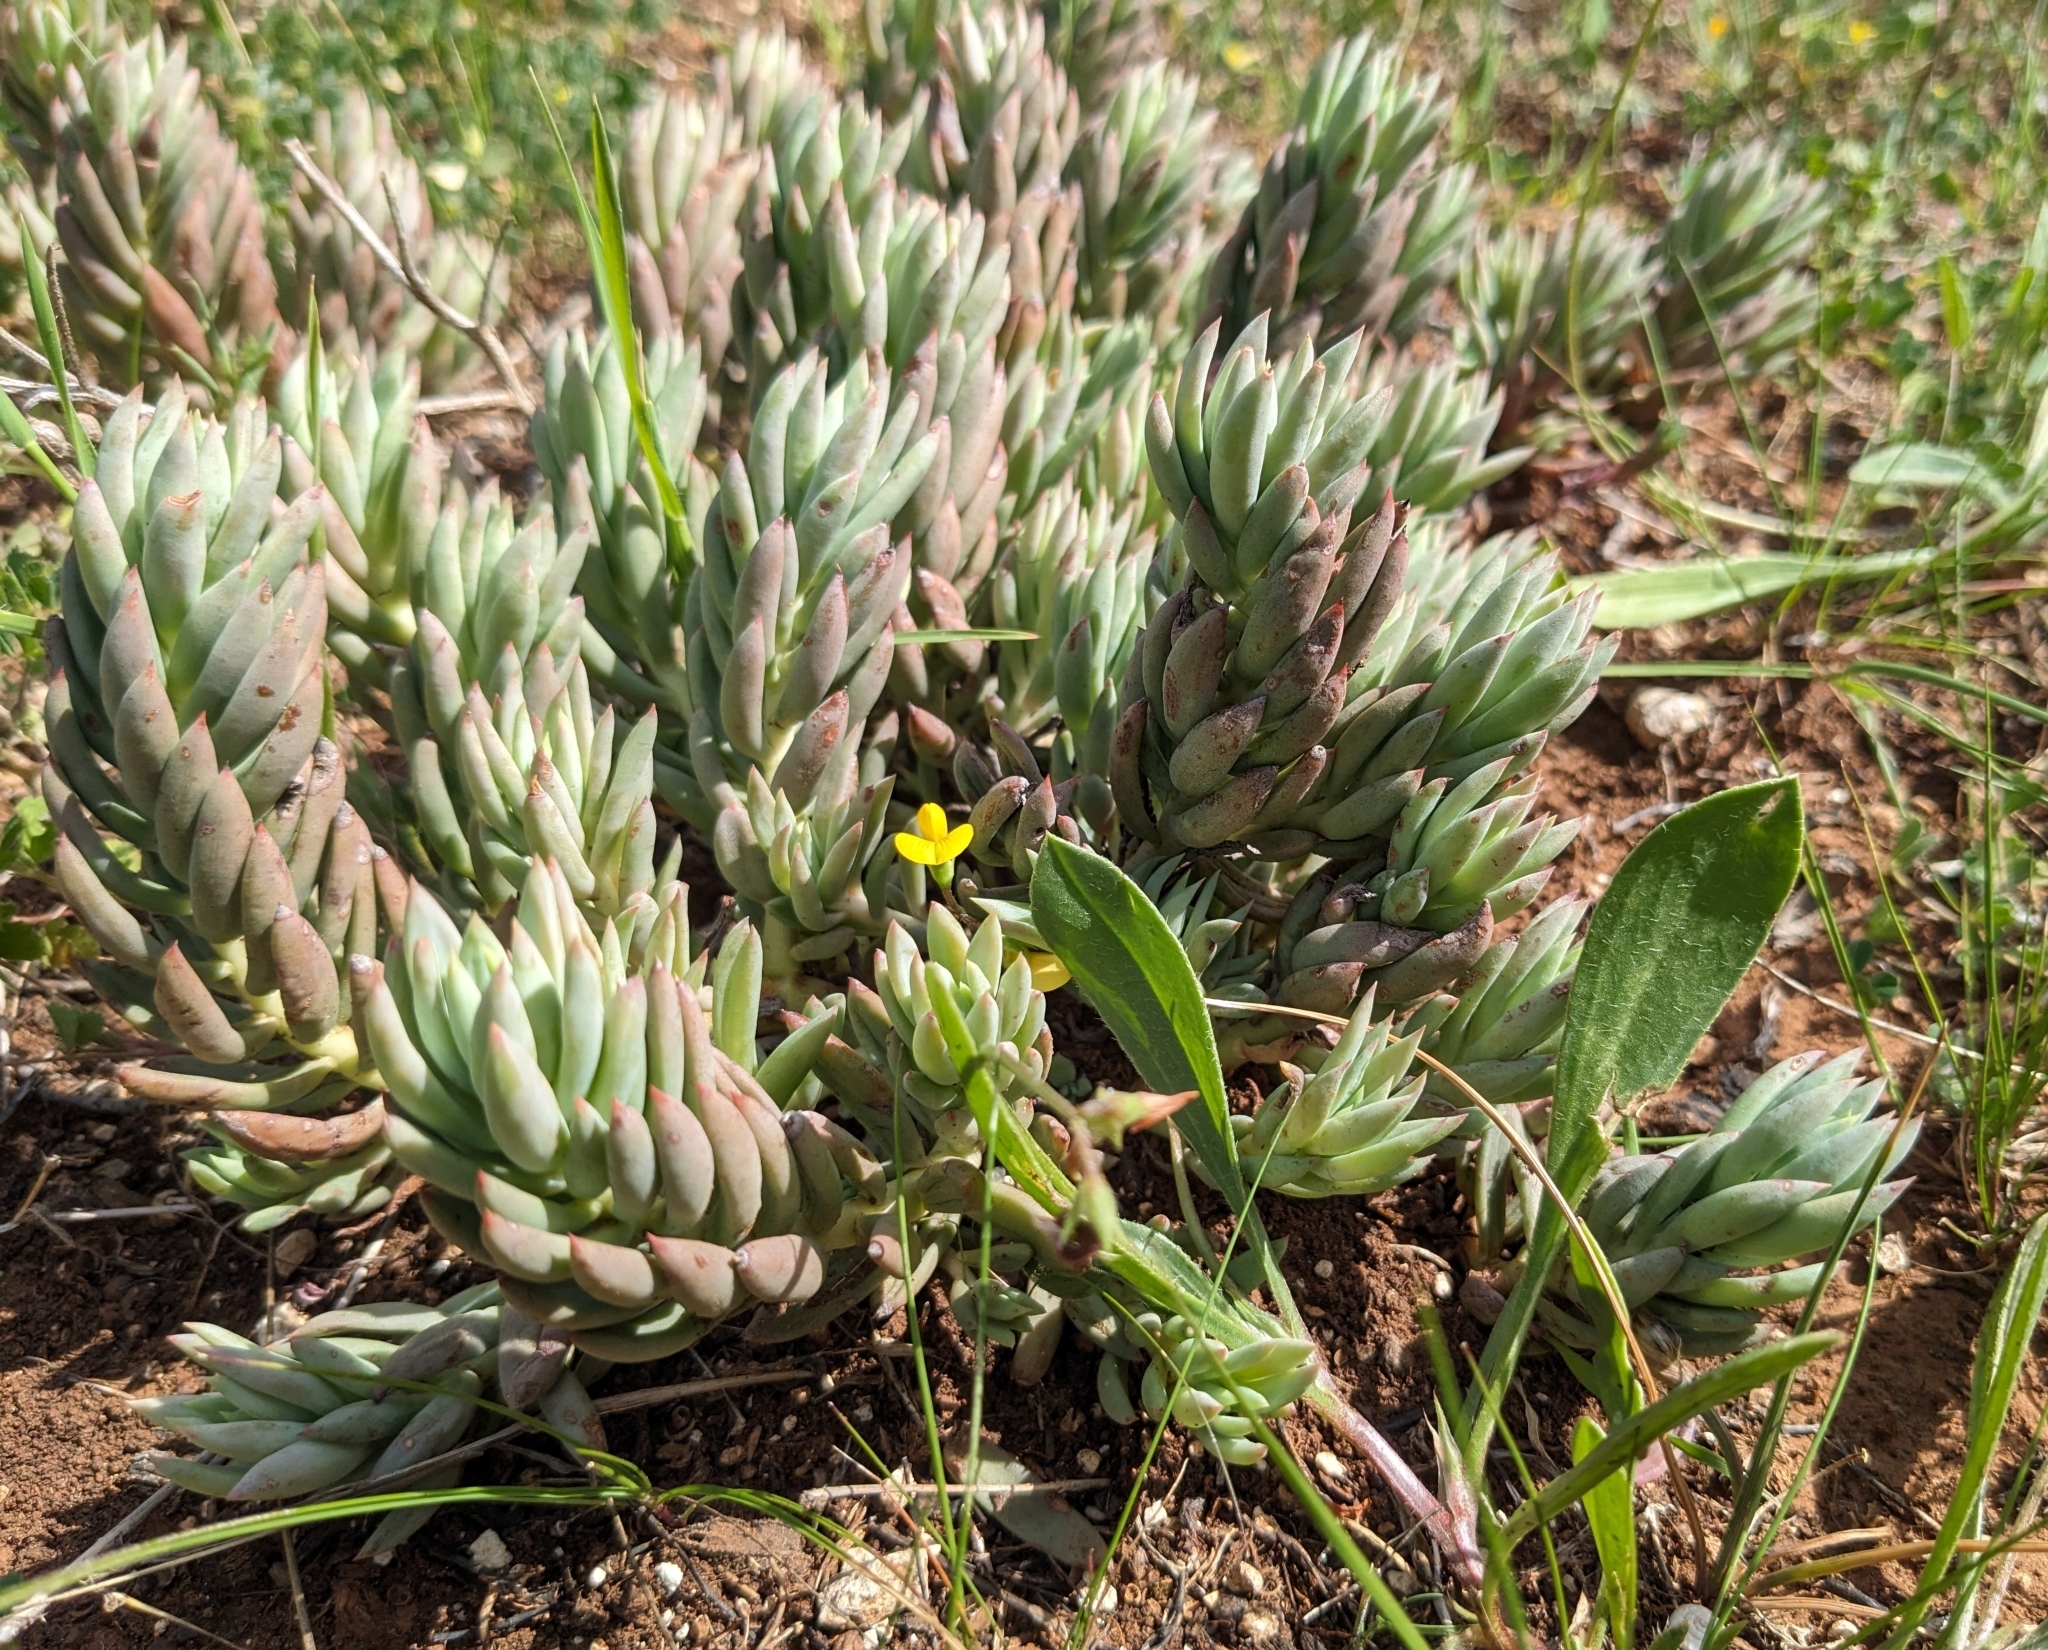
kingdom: Plantae
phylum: Tracheophyta
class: Magnoliopsida
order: Saxifragales
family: Crassulaceae
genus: Petrosedum
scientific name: Petrosedum sediforme
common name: Pale stonecrop
